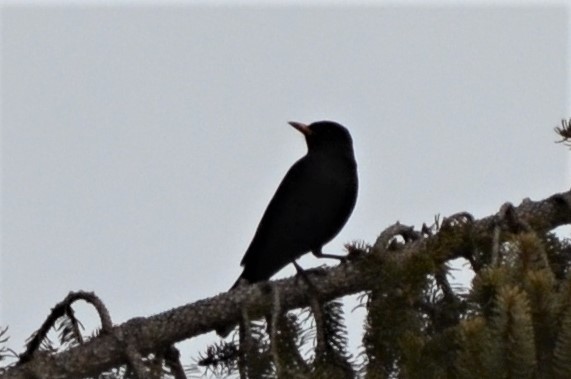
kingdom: Animalia
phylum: Chordata
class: Aves
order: Passeriformes
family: Turdidae
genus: Turdus
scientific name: Turdus merula
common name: Common blackbird
